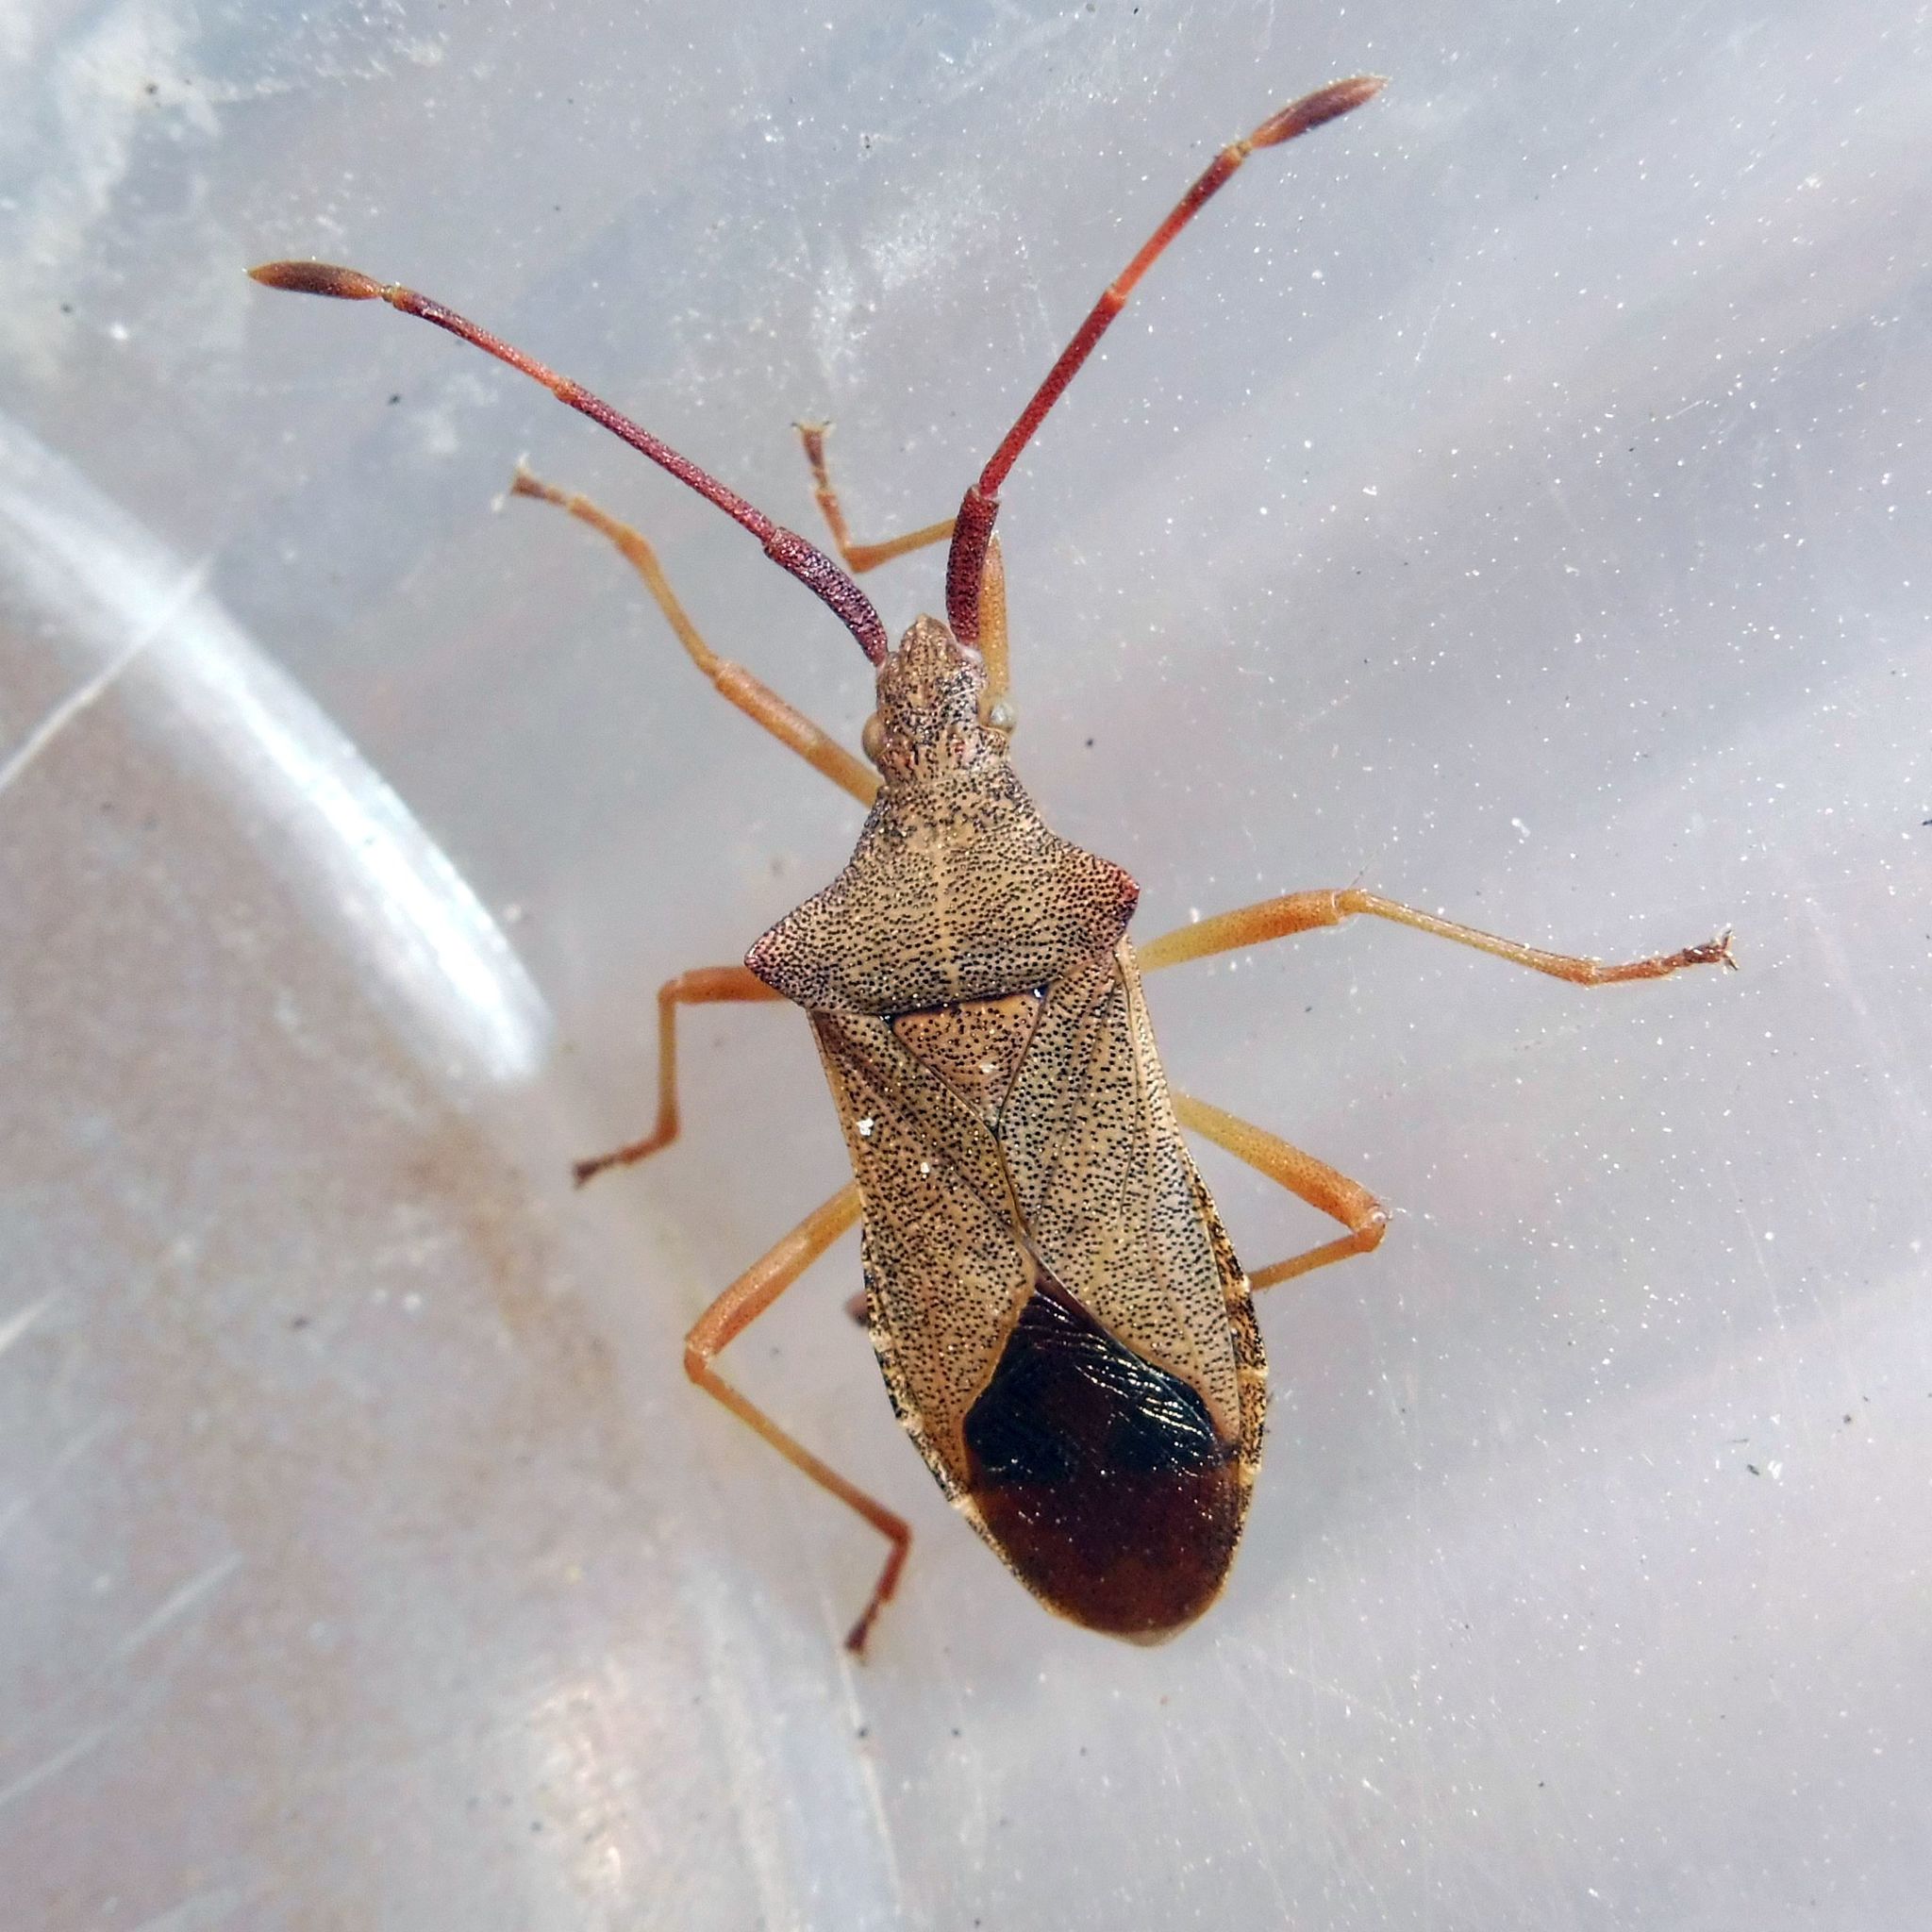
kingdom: Animalia
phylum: Arthropoda
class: Insecta
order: Hemiptera
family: Coreidae
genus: Gonocerus
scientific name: Gonocerus acuteangulatus
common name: Box bug
